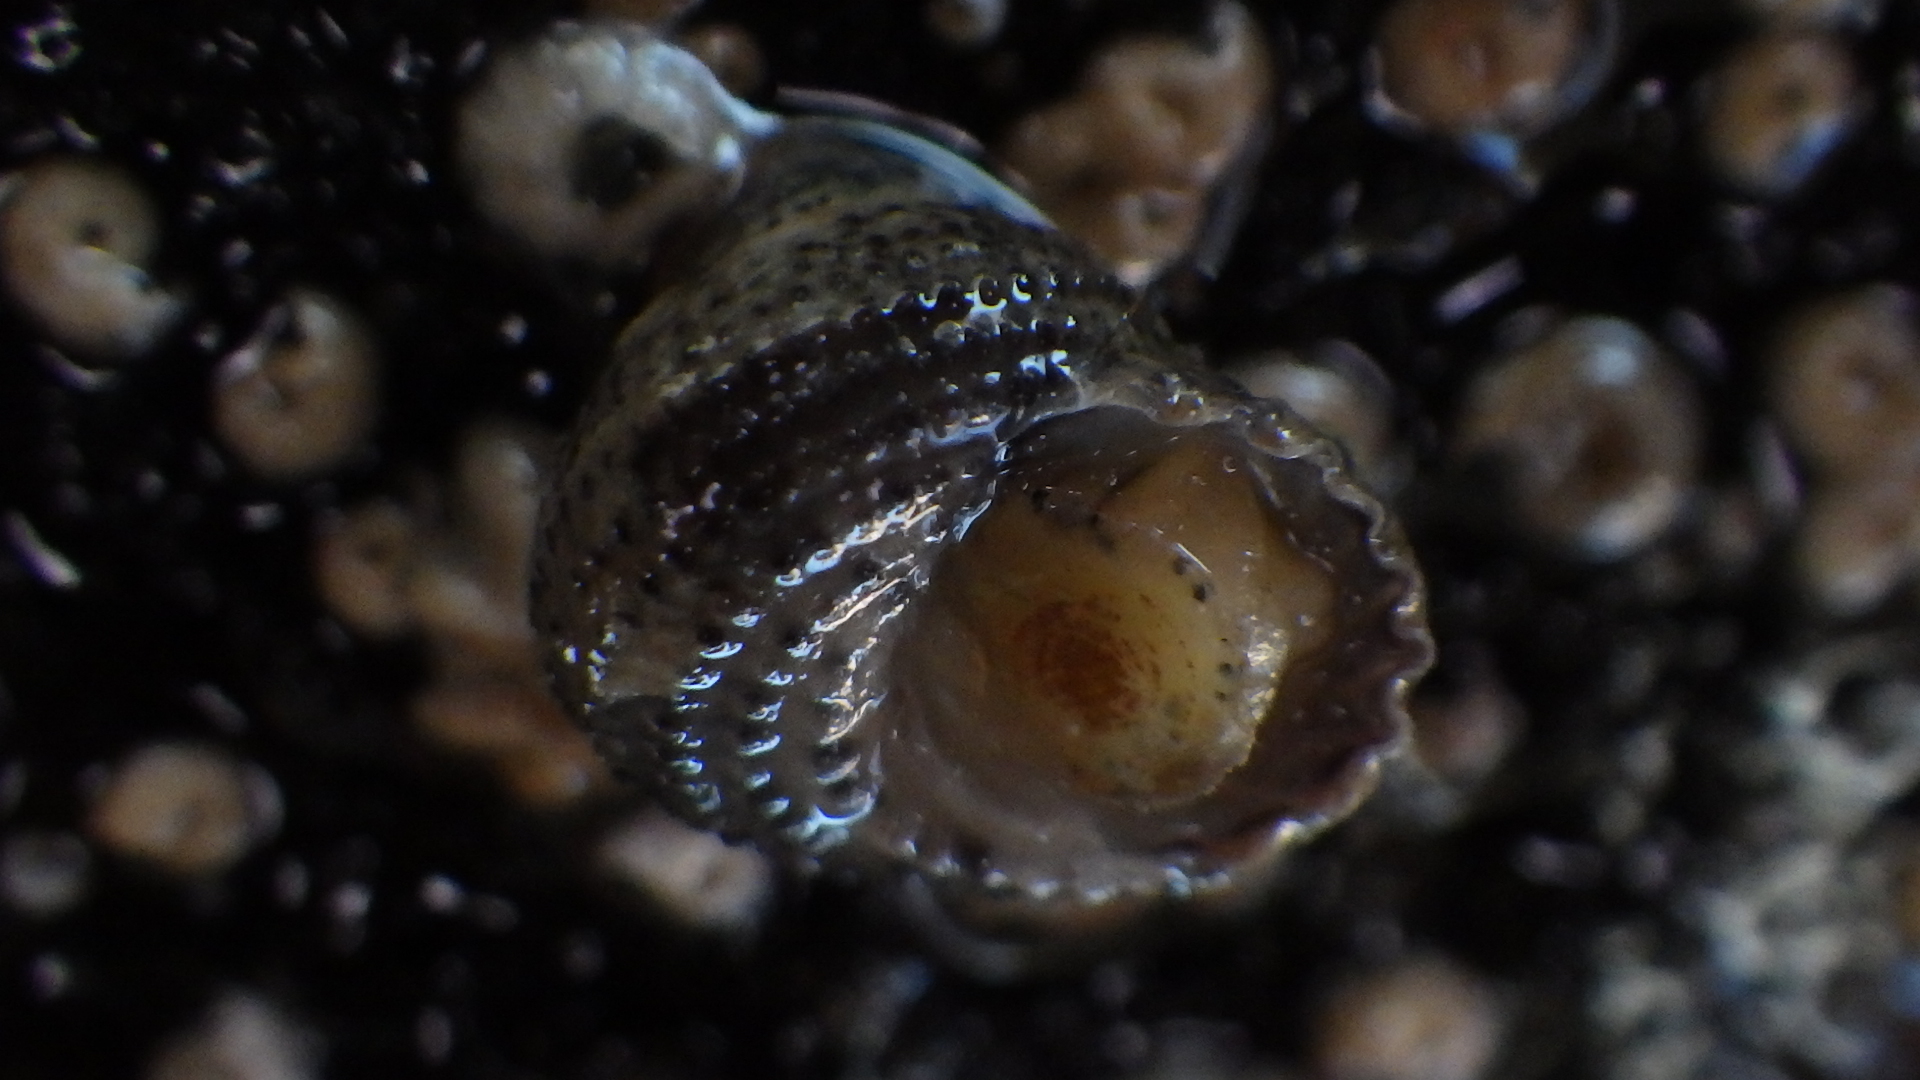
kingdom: Animalia
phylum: Mollusca
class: Gastropoda
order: Seguenziida
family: Chilodontaidae
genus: Herpetopoma
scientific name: Herpetopoma bellum
